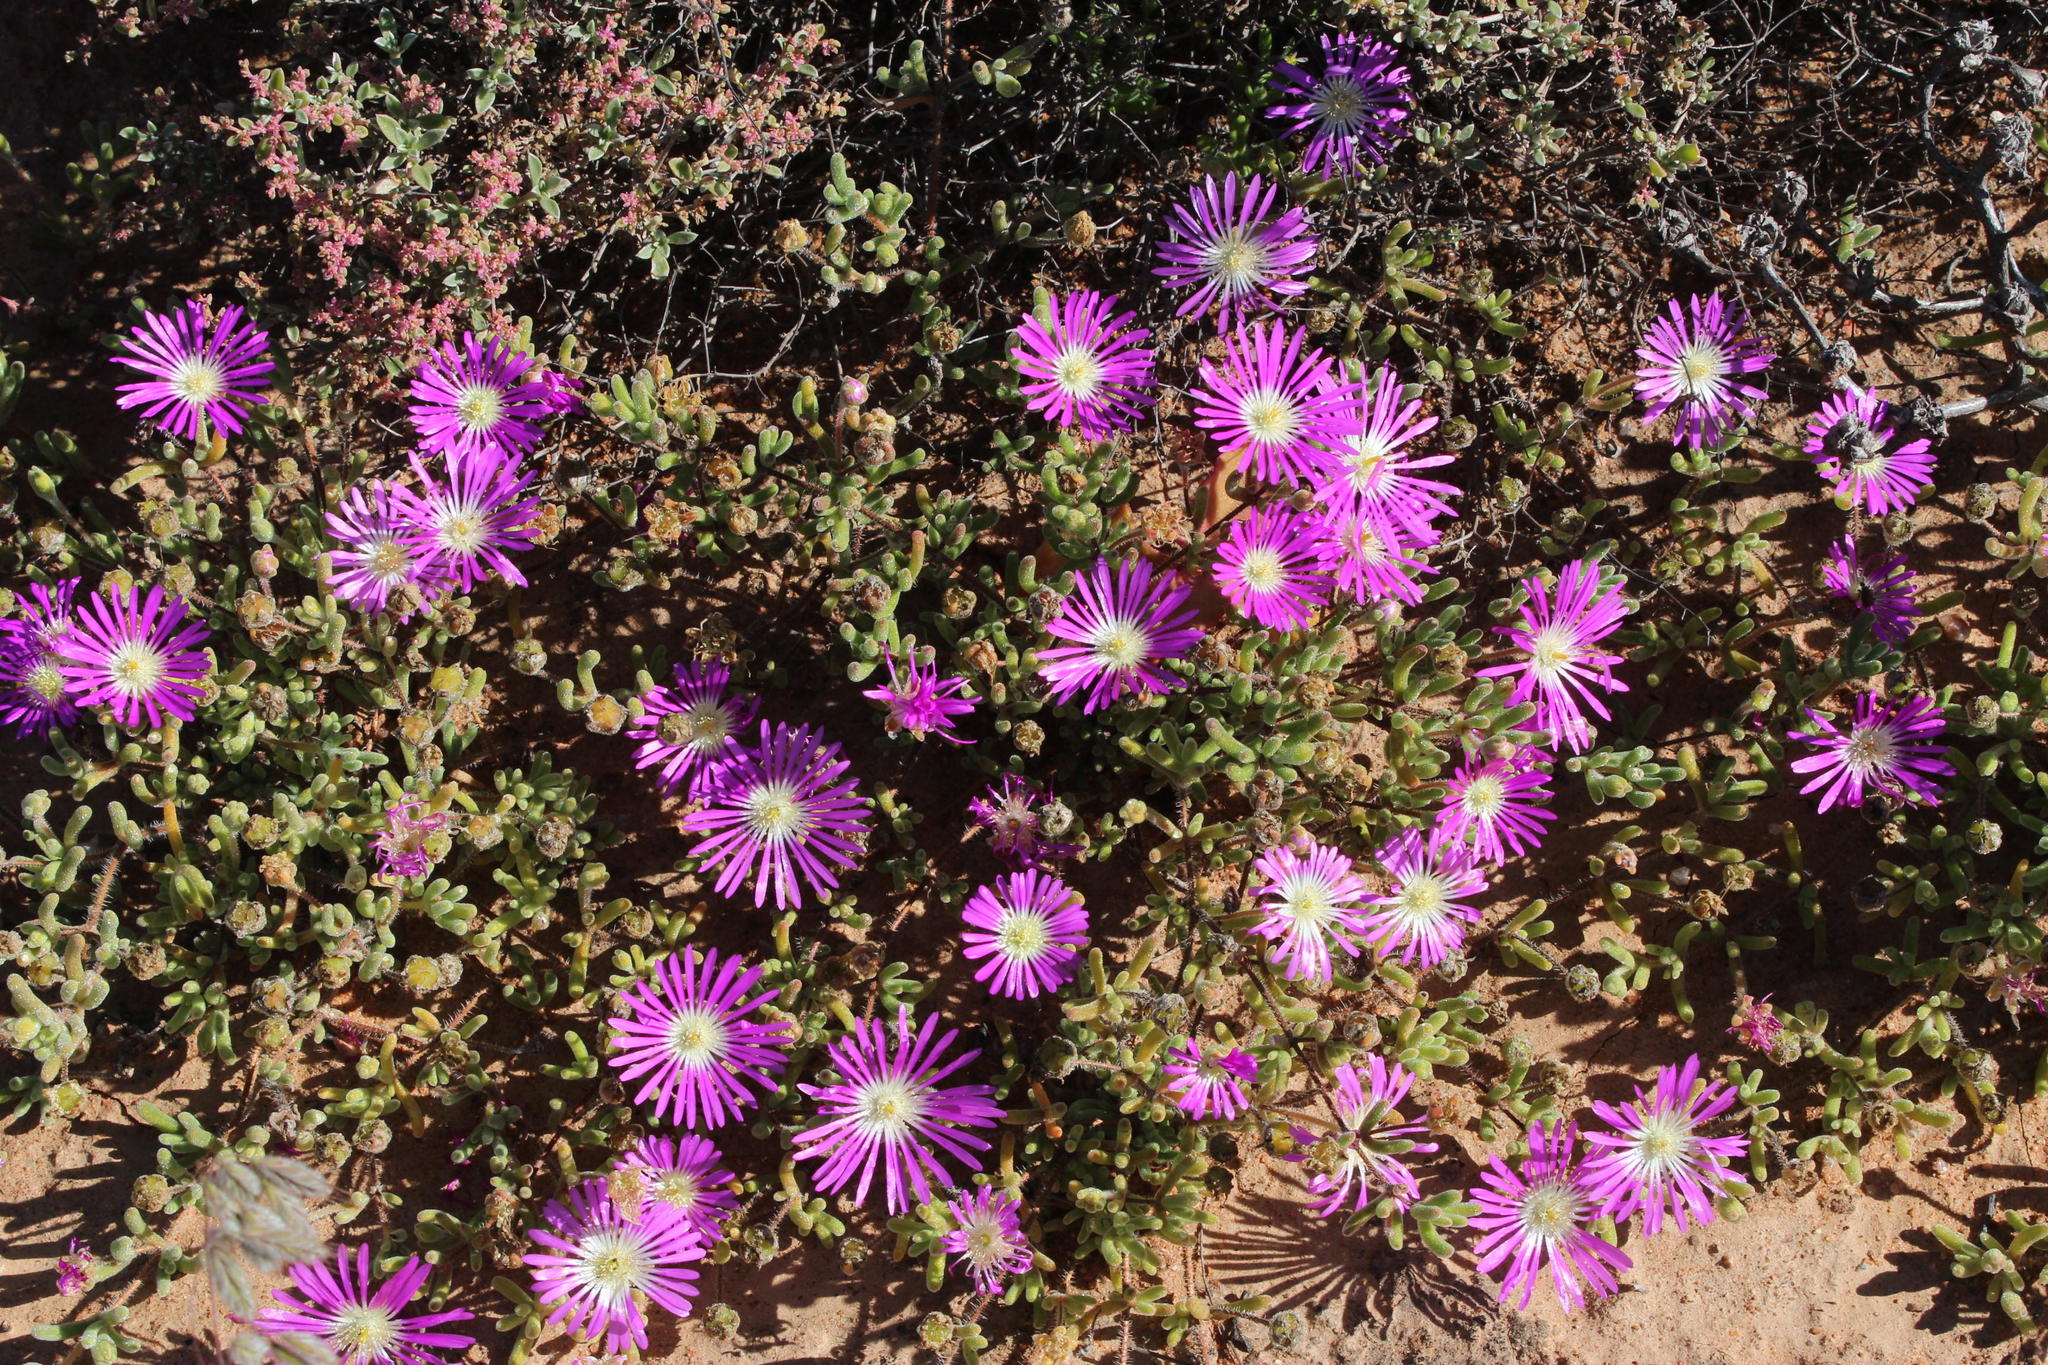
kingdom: Plantae
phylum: Tracheophyta
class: Magnoliopsida
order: Caryophyllales
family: Aizoaceae
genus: Drosanthemum
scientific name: Drosanthemum oculatum
